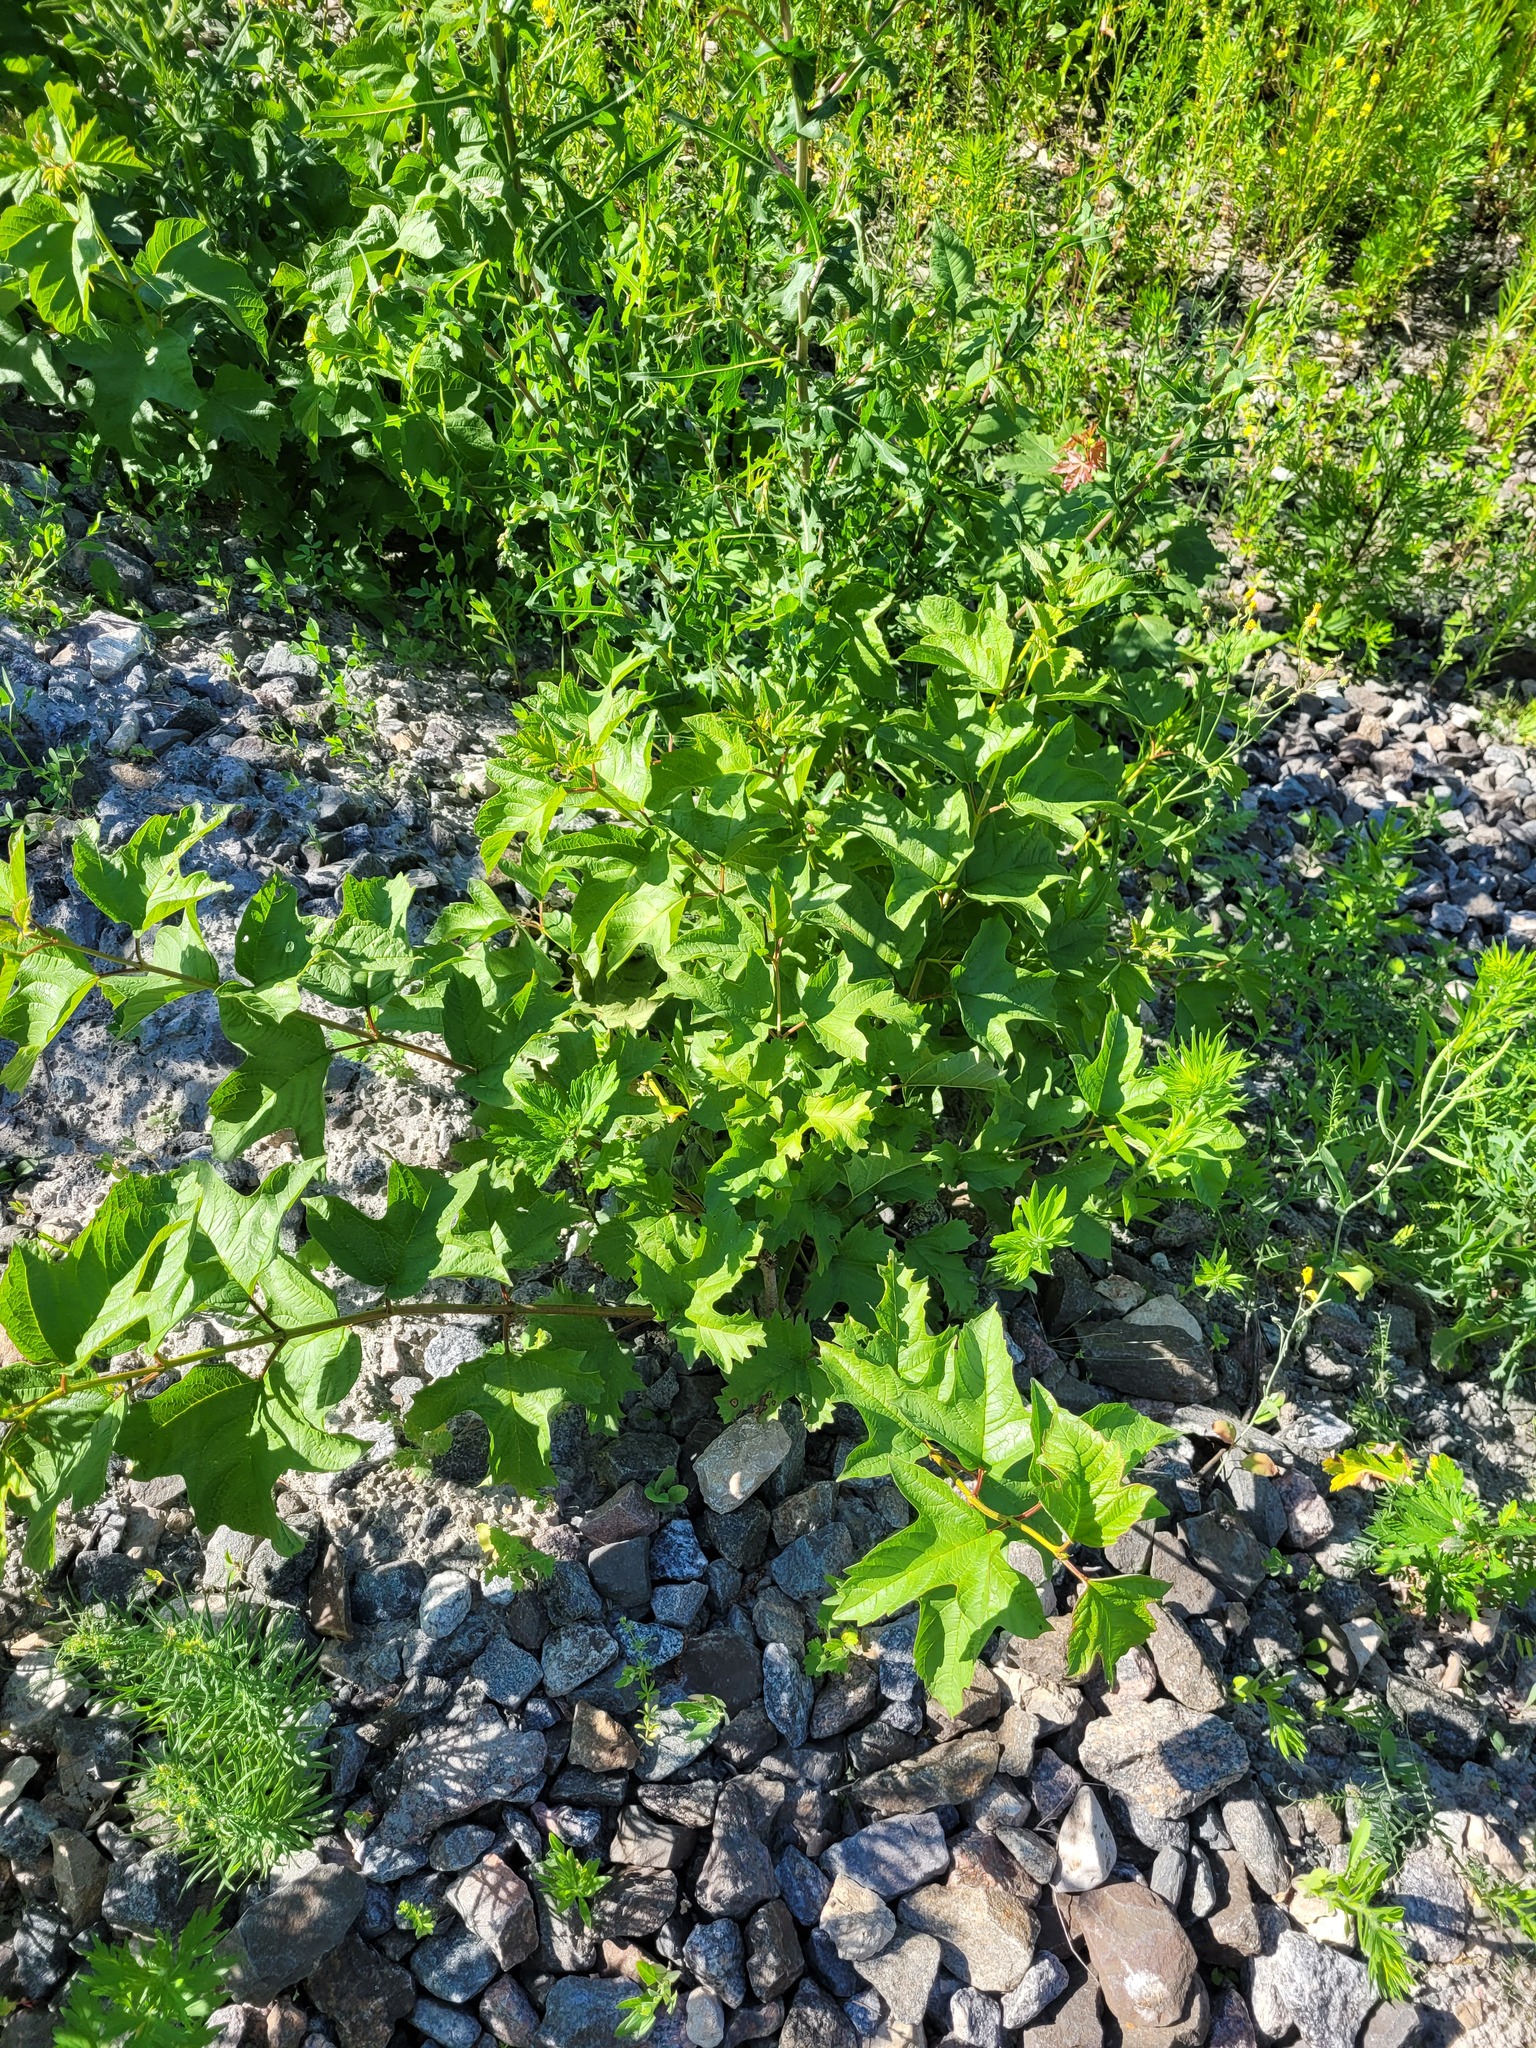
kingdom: Plantae
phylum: Tracheophyta
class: Magnoliopsida
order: Dipsacales
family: Viburnaceae
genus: Viburnum
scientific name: Viburnum opulus
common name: Guelder-rose
